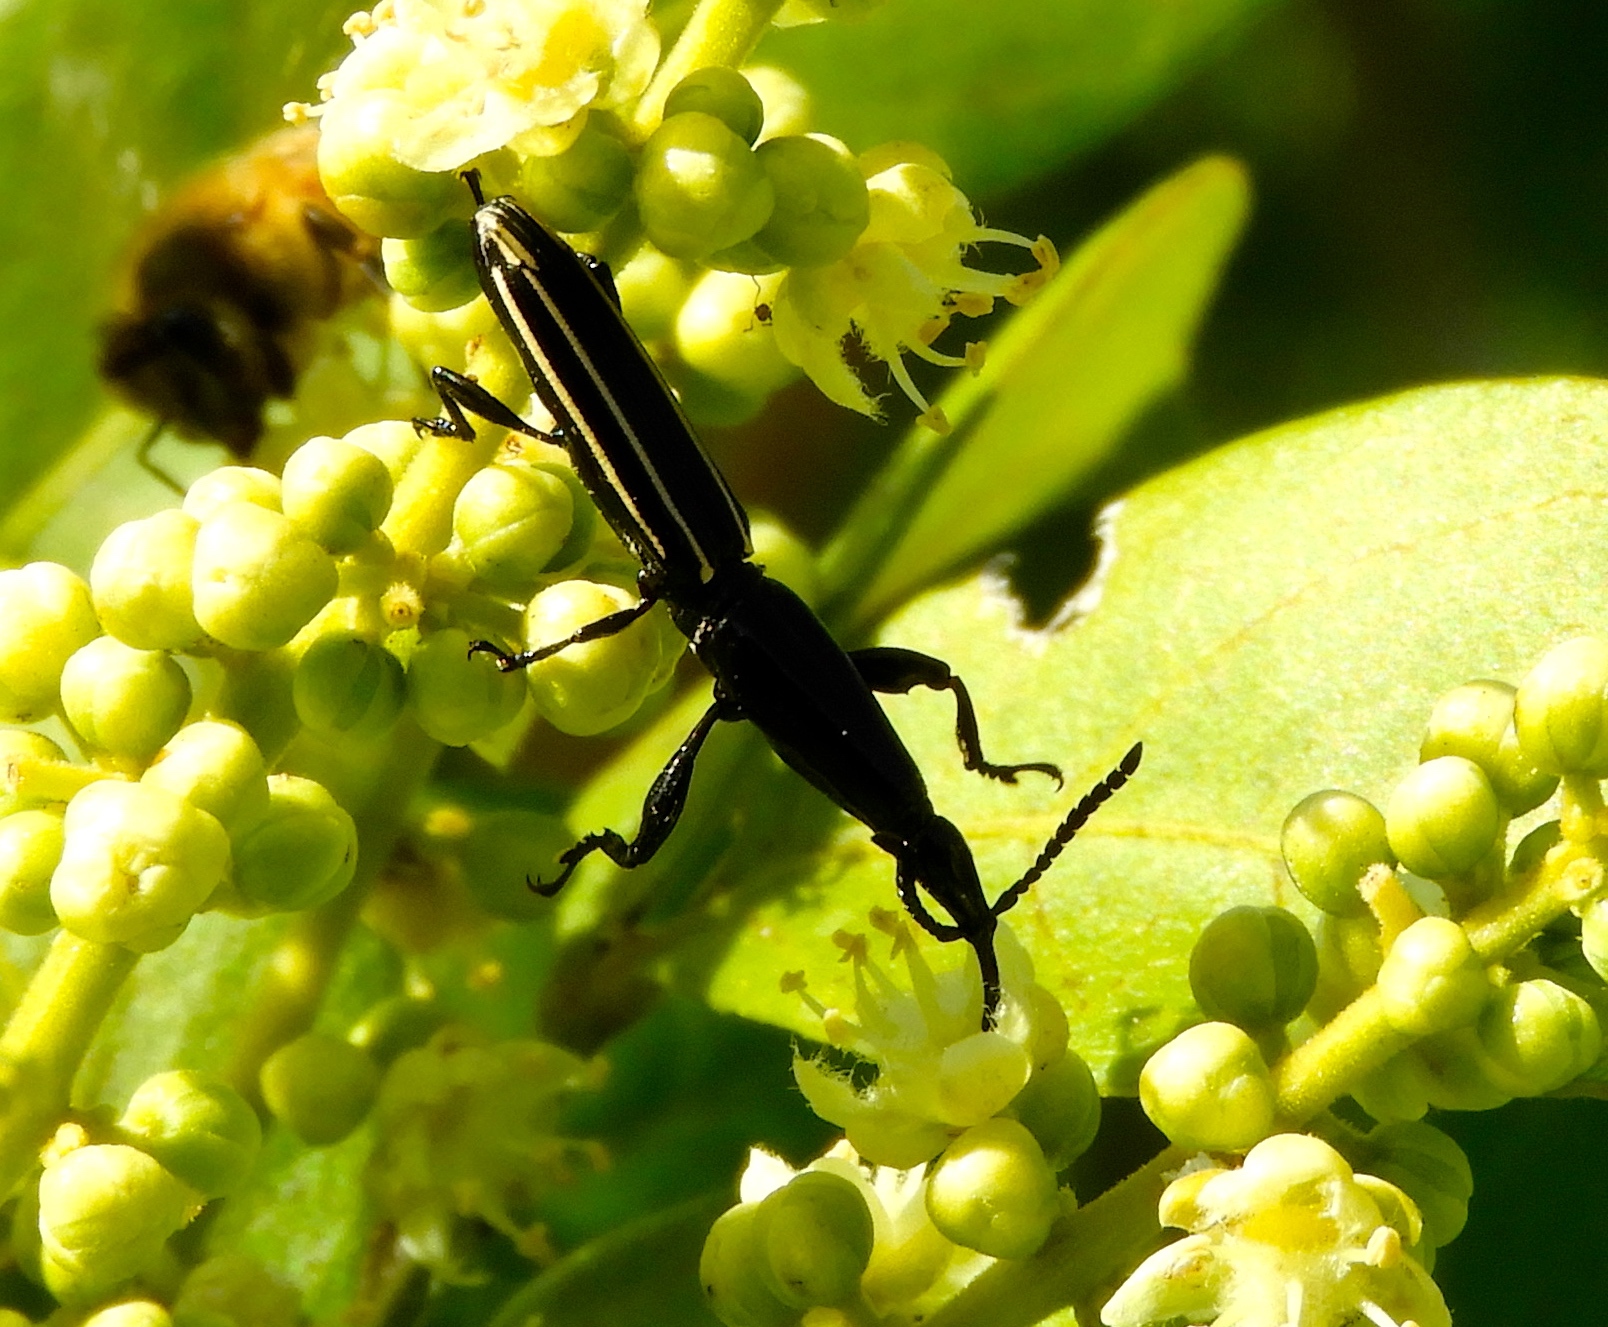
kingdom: Animalia
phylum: Arthropoda
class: Insecta
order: Coleoptera
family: Brentidae
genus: Brentus
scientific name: Brentus
